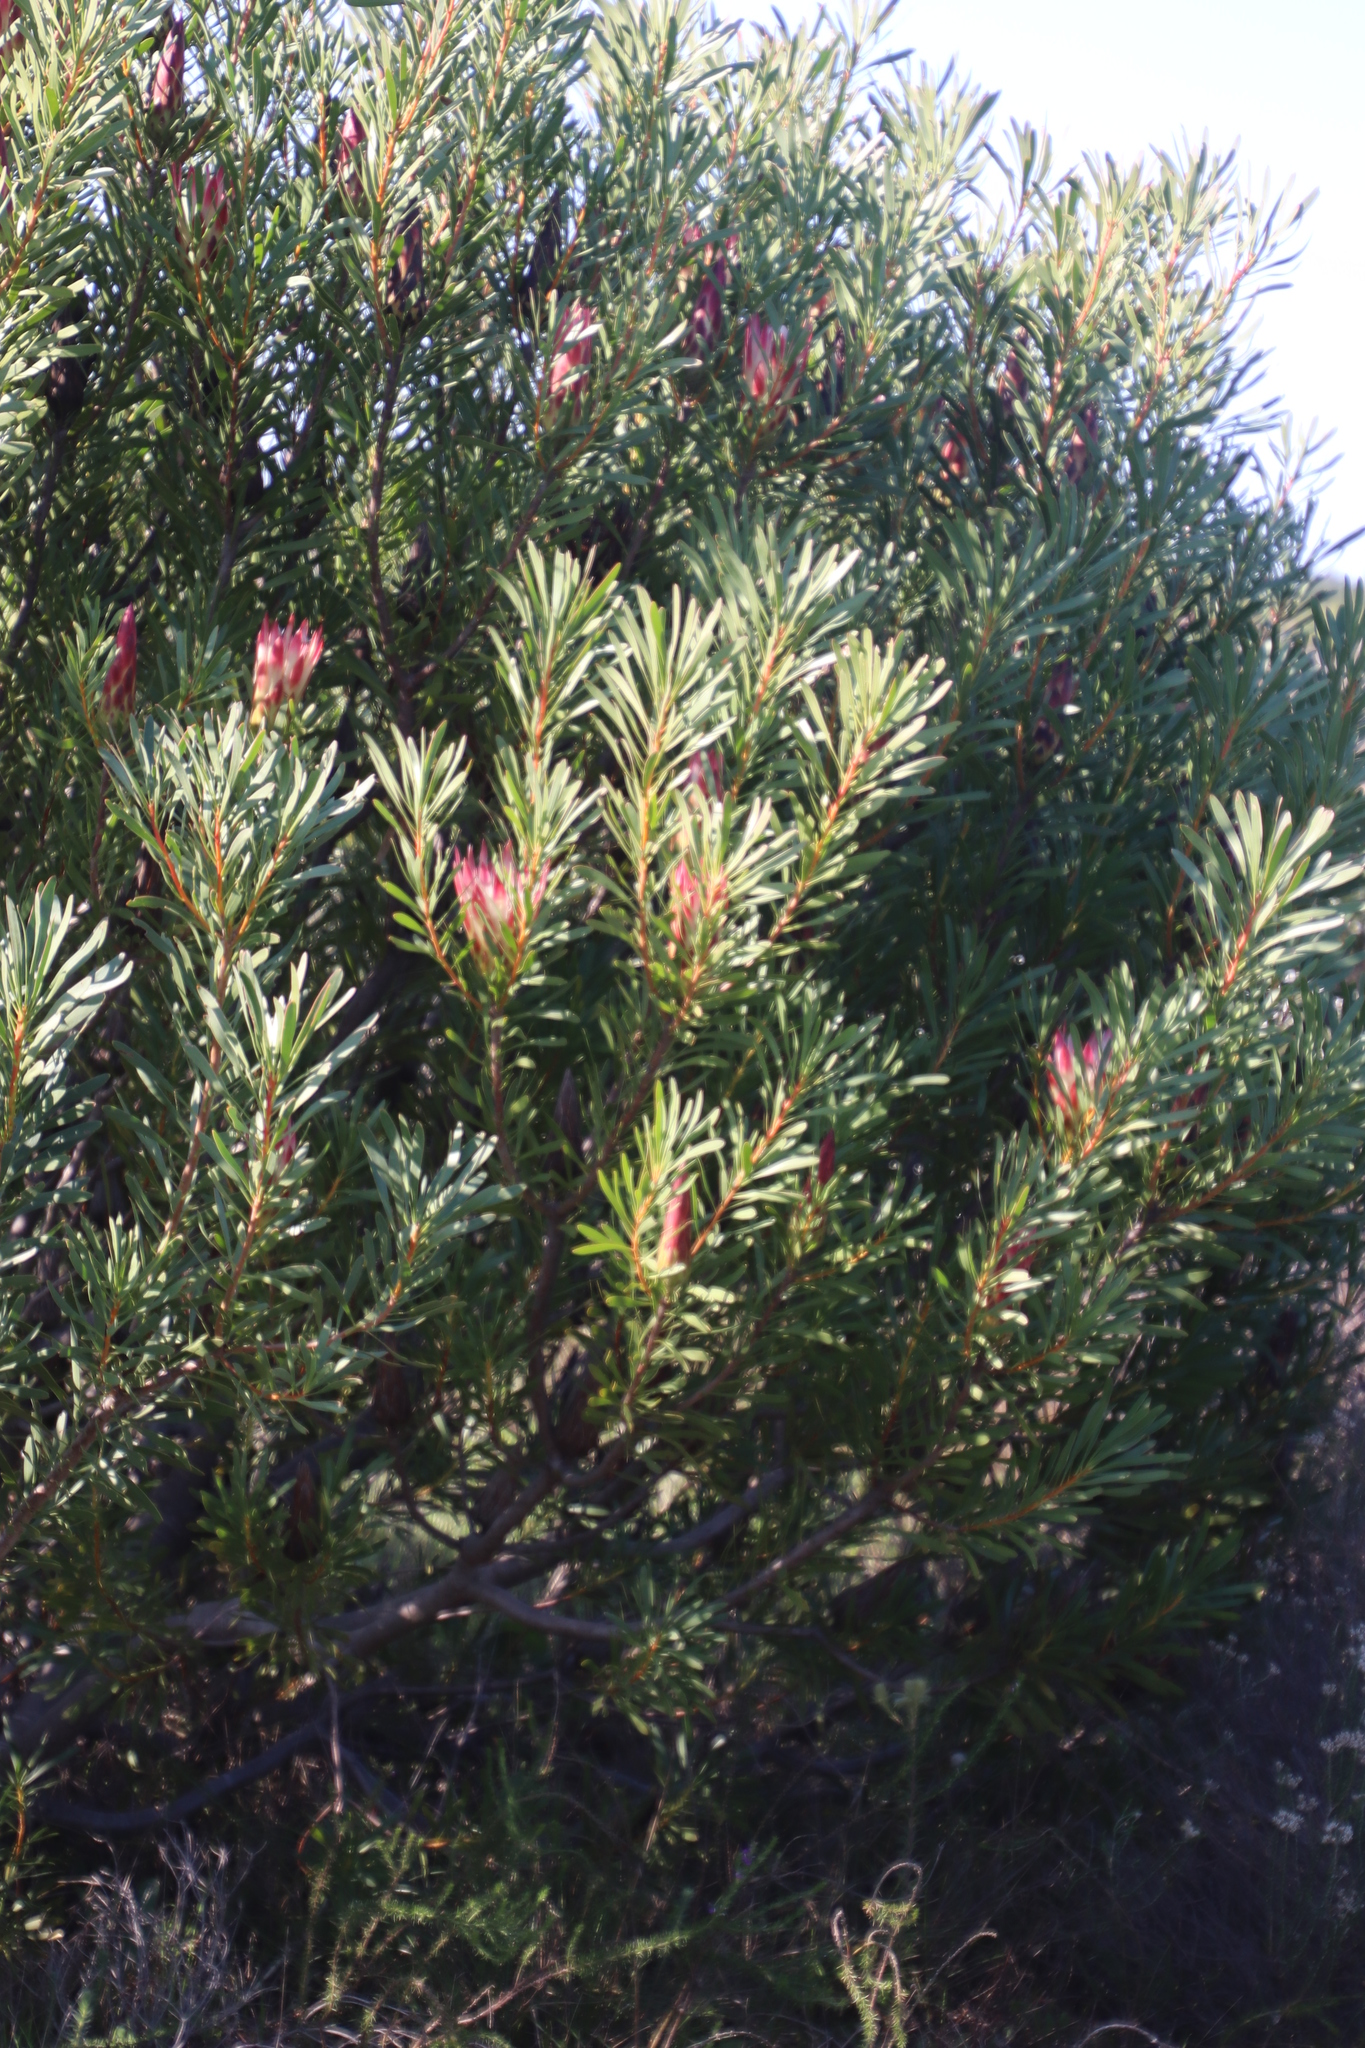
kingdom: Plantae
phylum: Tracheophyta
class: Magnoliopsida
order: Proteales
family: Proteaceae
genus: Protea
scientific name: Protea repens
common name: Sugarbush
